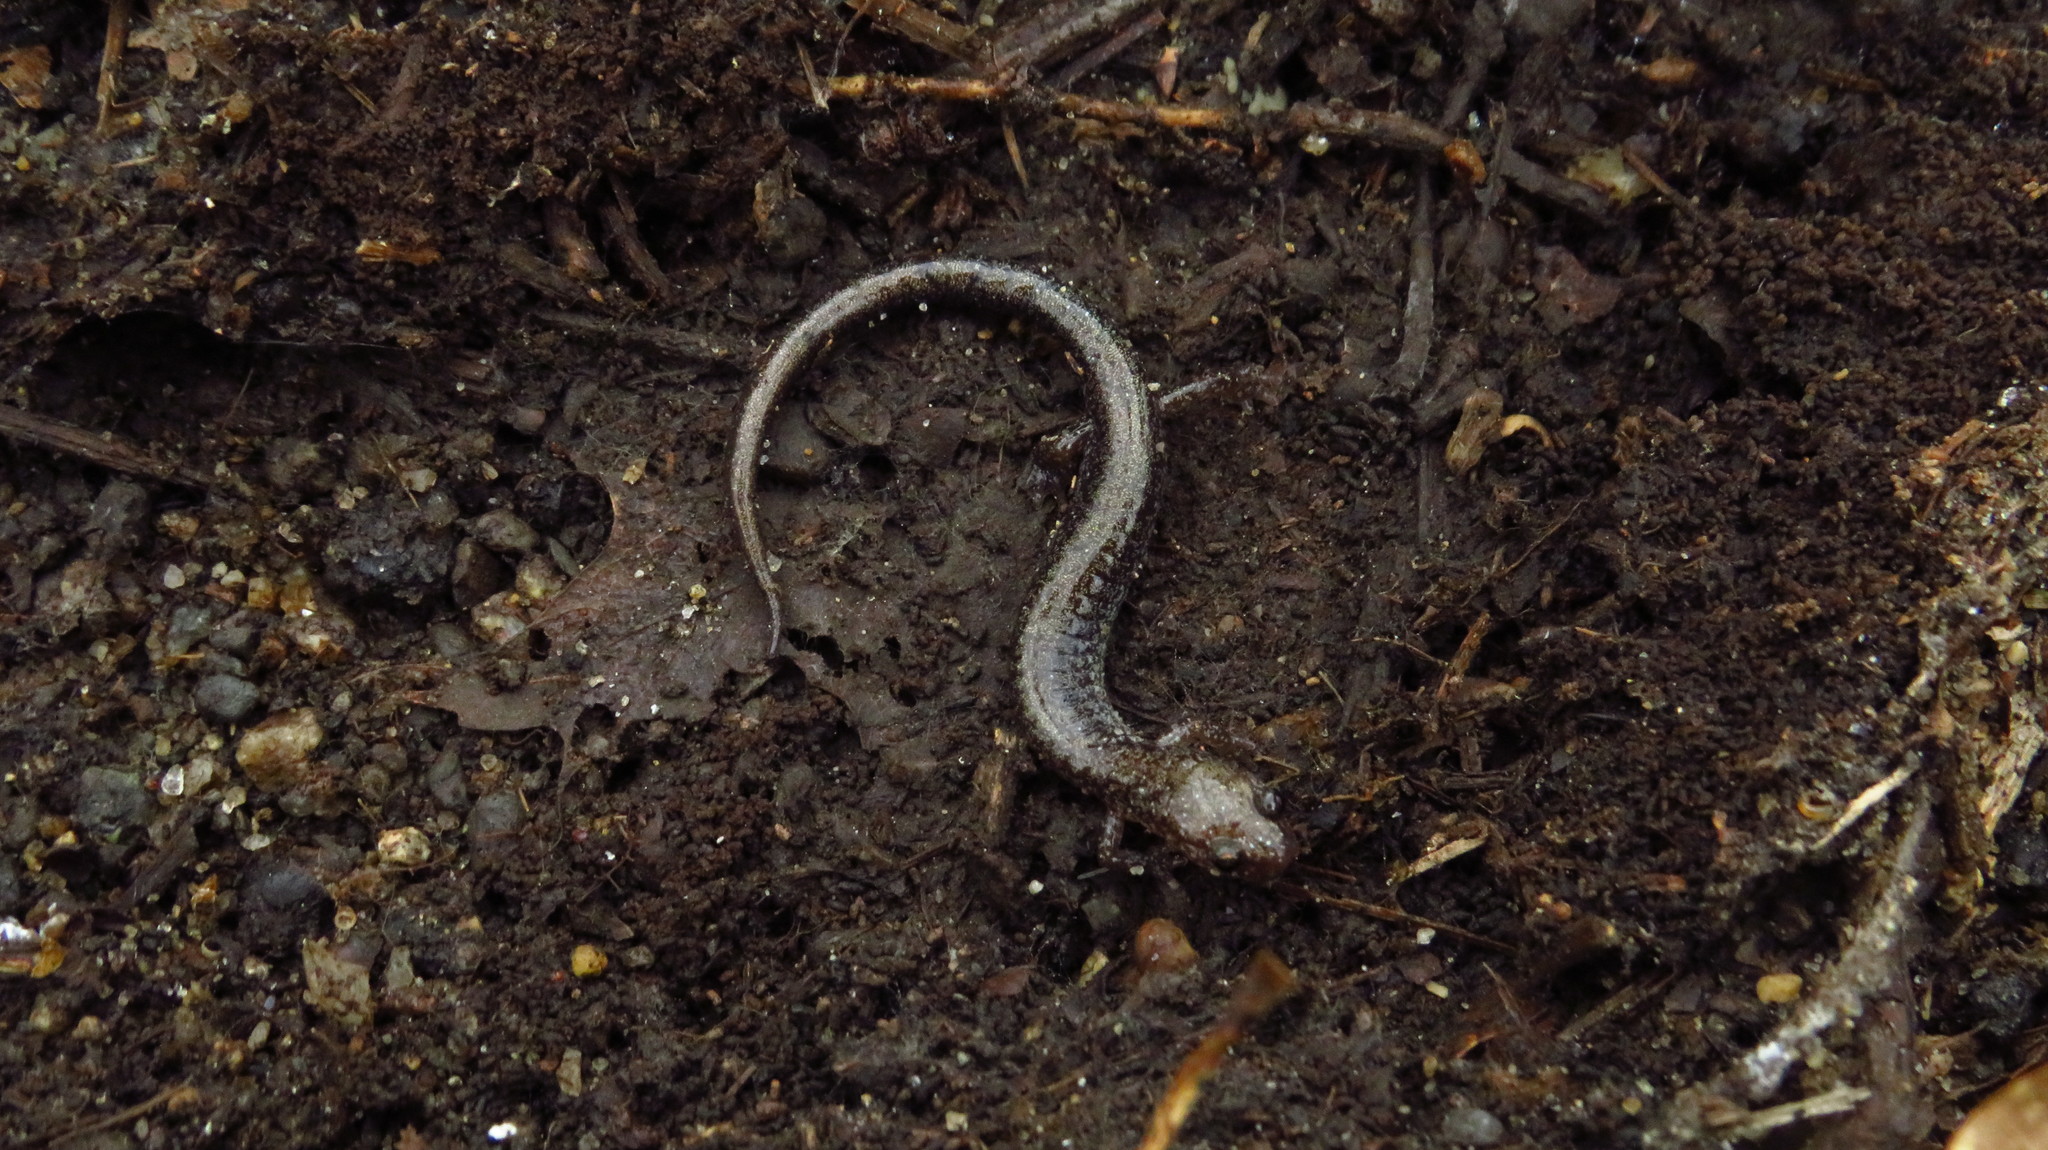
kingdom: Animalia
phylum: Chordata
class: Amphibia
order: Caudata
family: Plethodontidae
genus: Plethodon
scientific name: Plethodon cinereus
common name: Redback salamander
